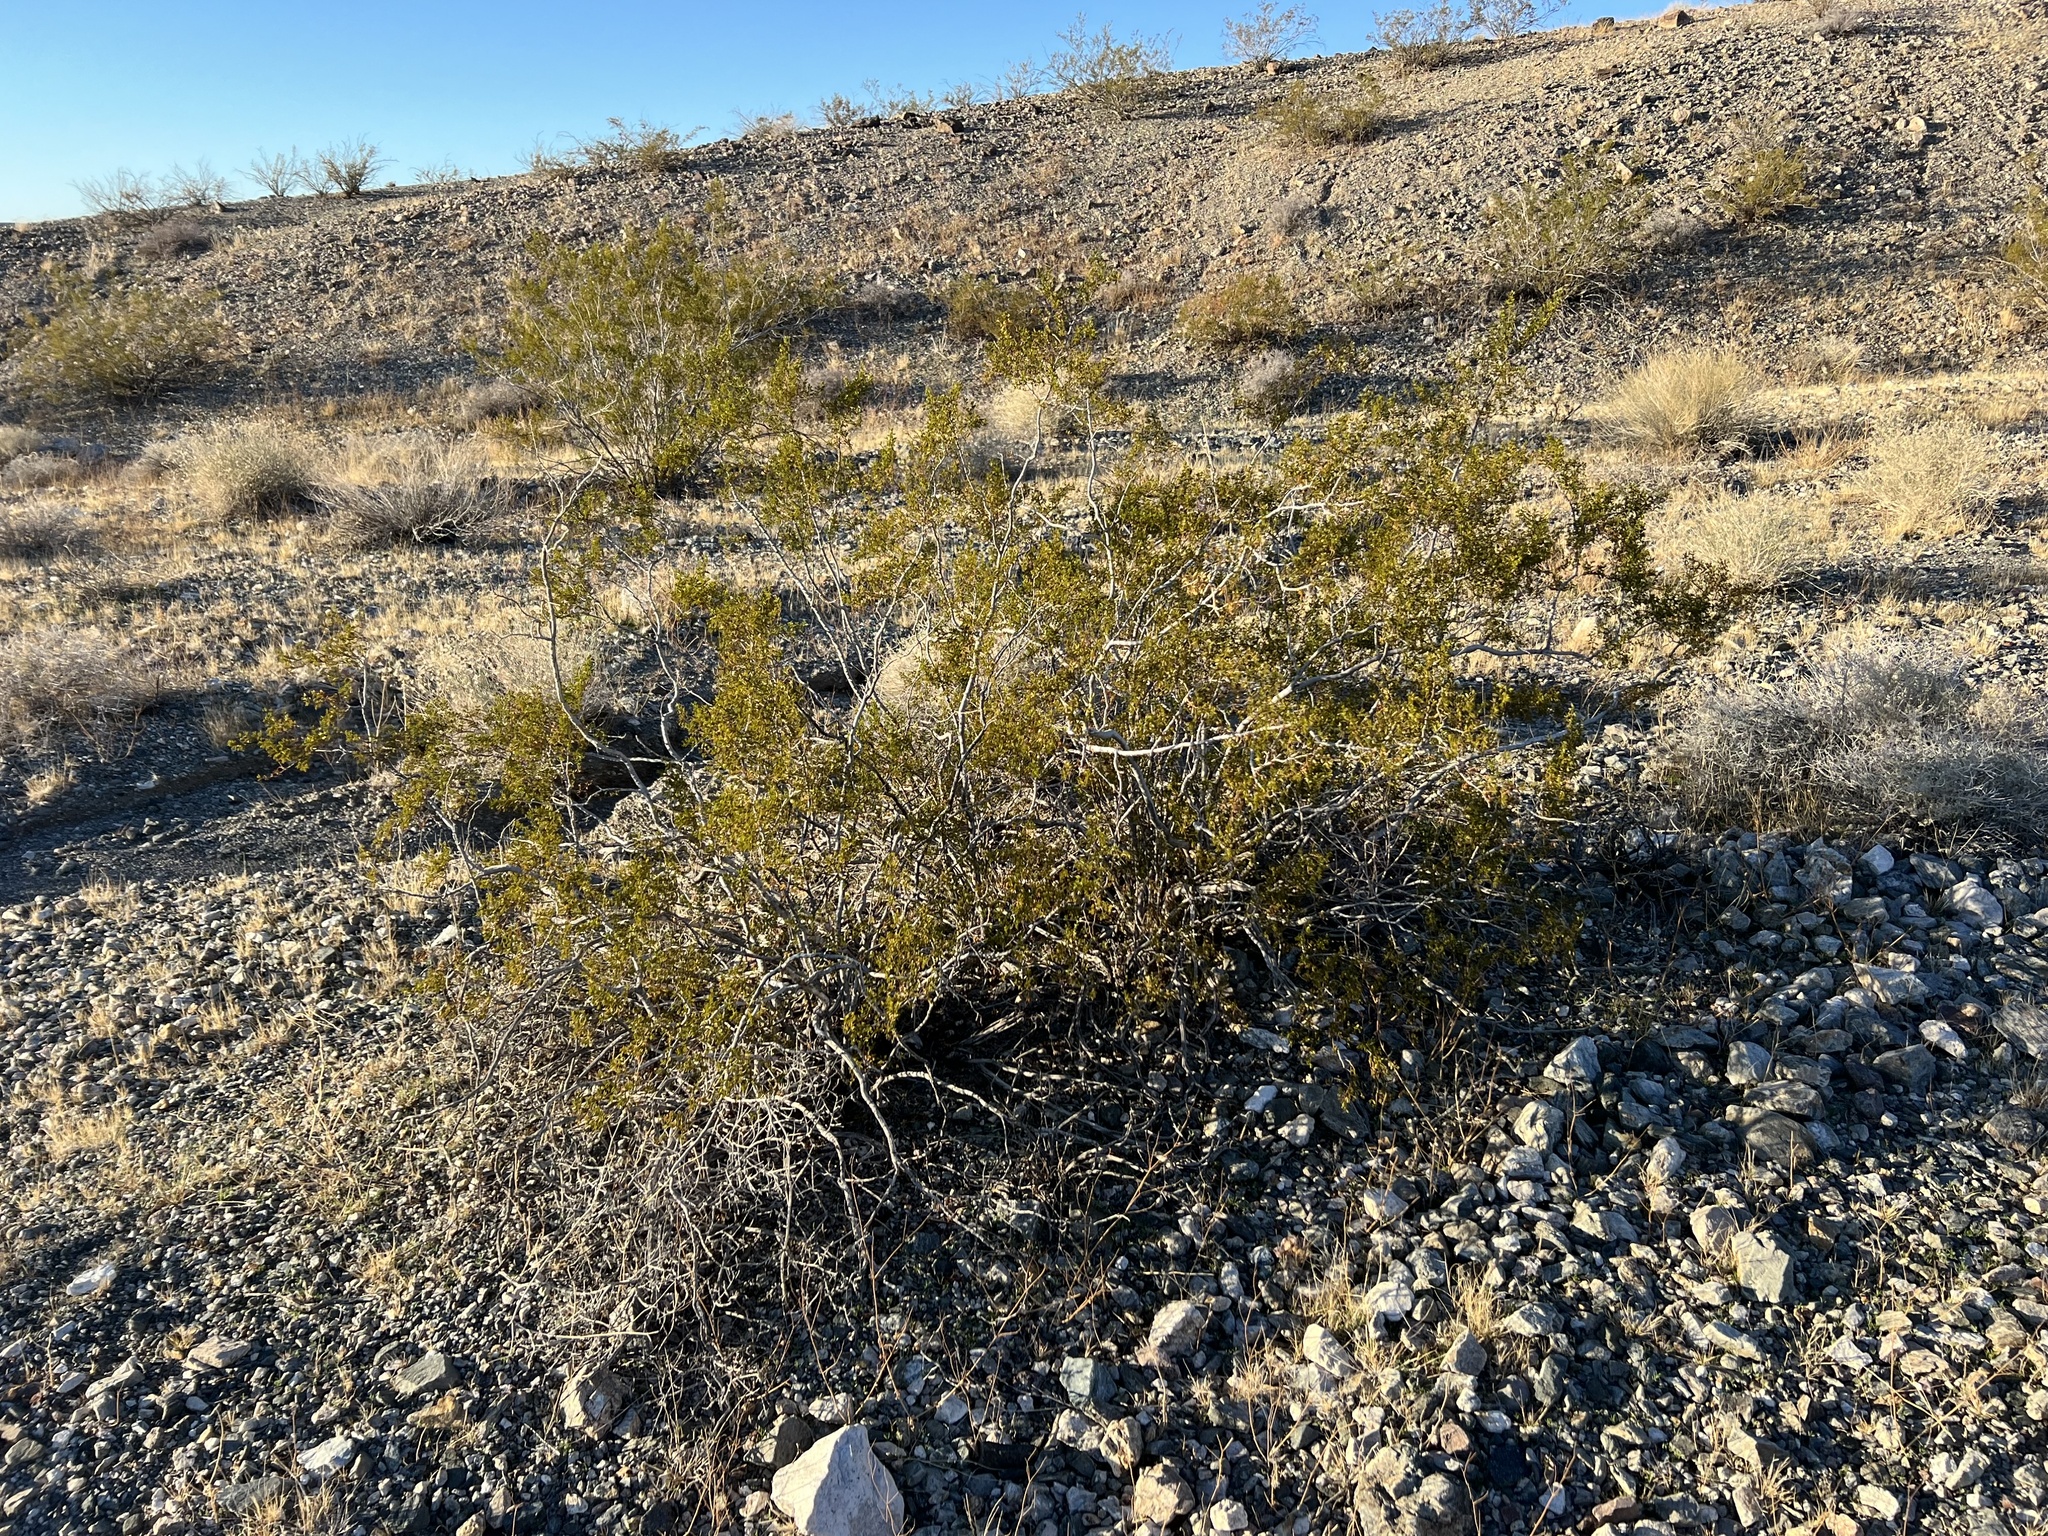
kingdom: Plantae
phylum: Tracheophyta
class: Magnoliopsida
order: Zygophyllales
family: Zygophyllaceae
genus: Larrea
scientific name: Larrea tridentata
